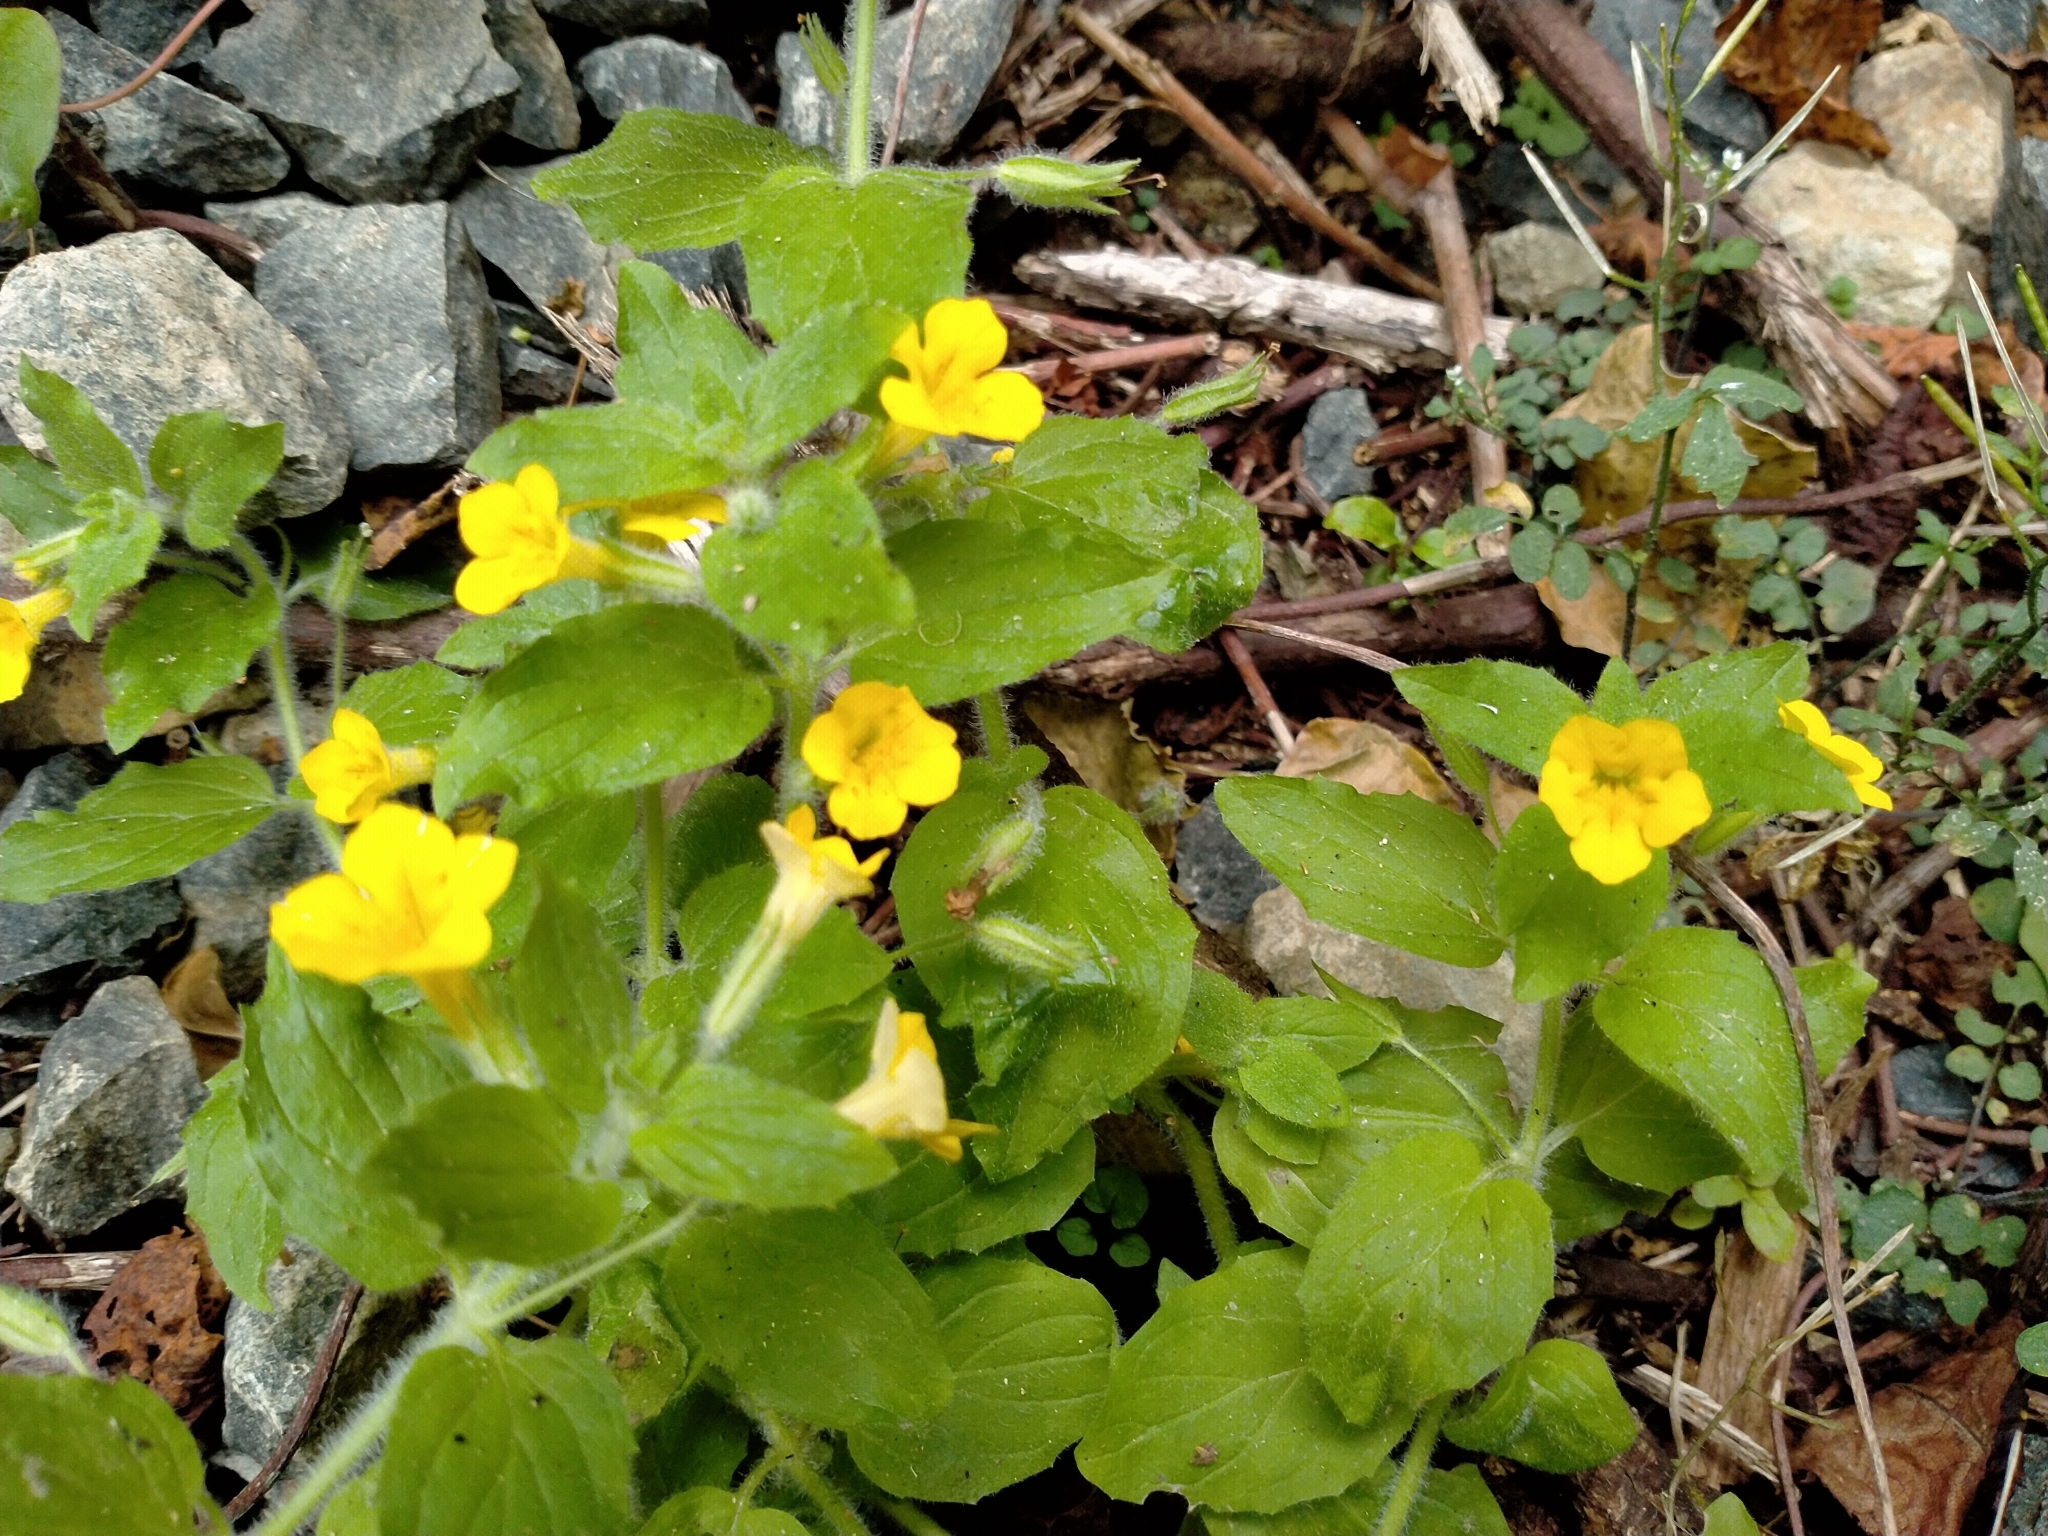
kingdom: Plantae
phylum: Tracheophyta
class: Magnoliopsida
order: Lamiales
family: Phrymaceae
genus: Erythranthe
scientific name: Erythranthe moschata
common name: Muskflower
